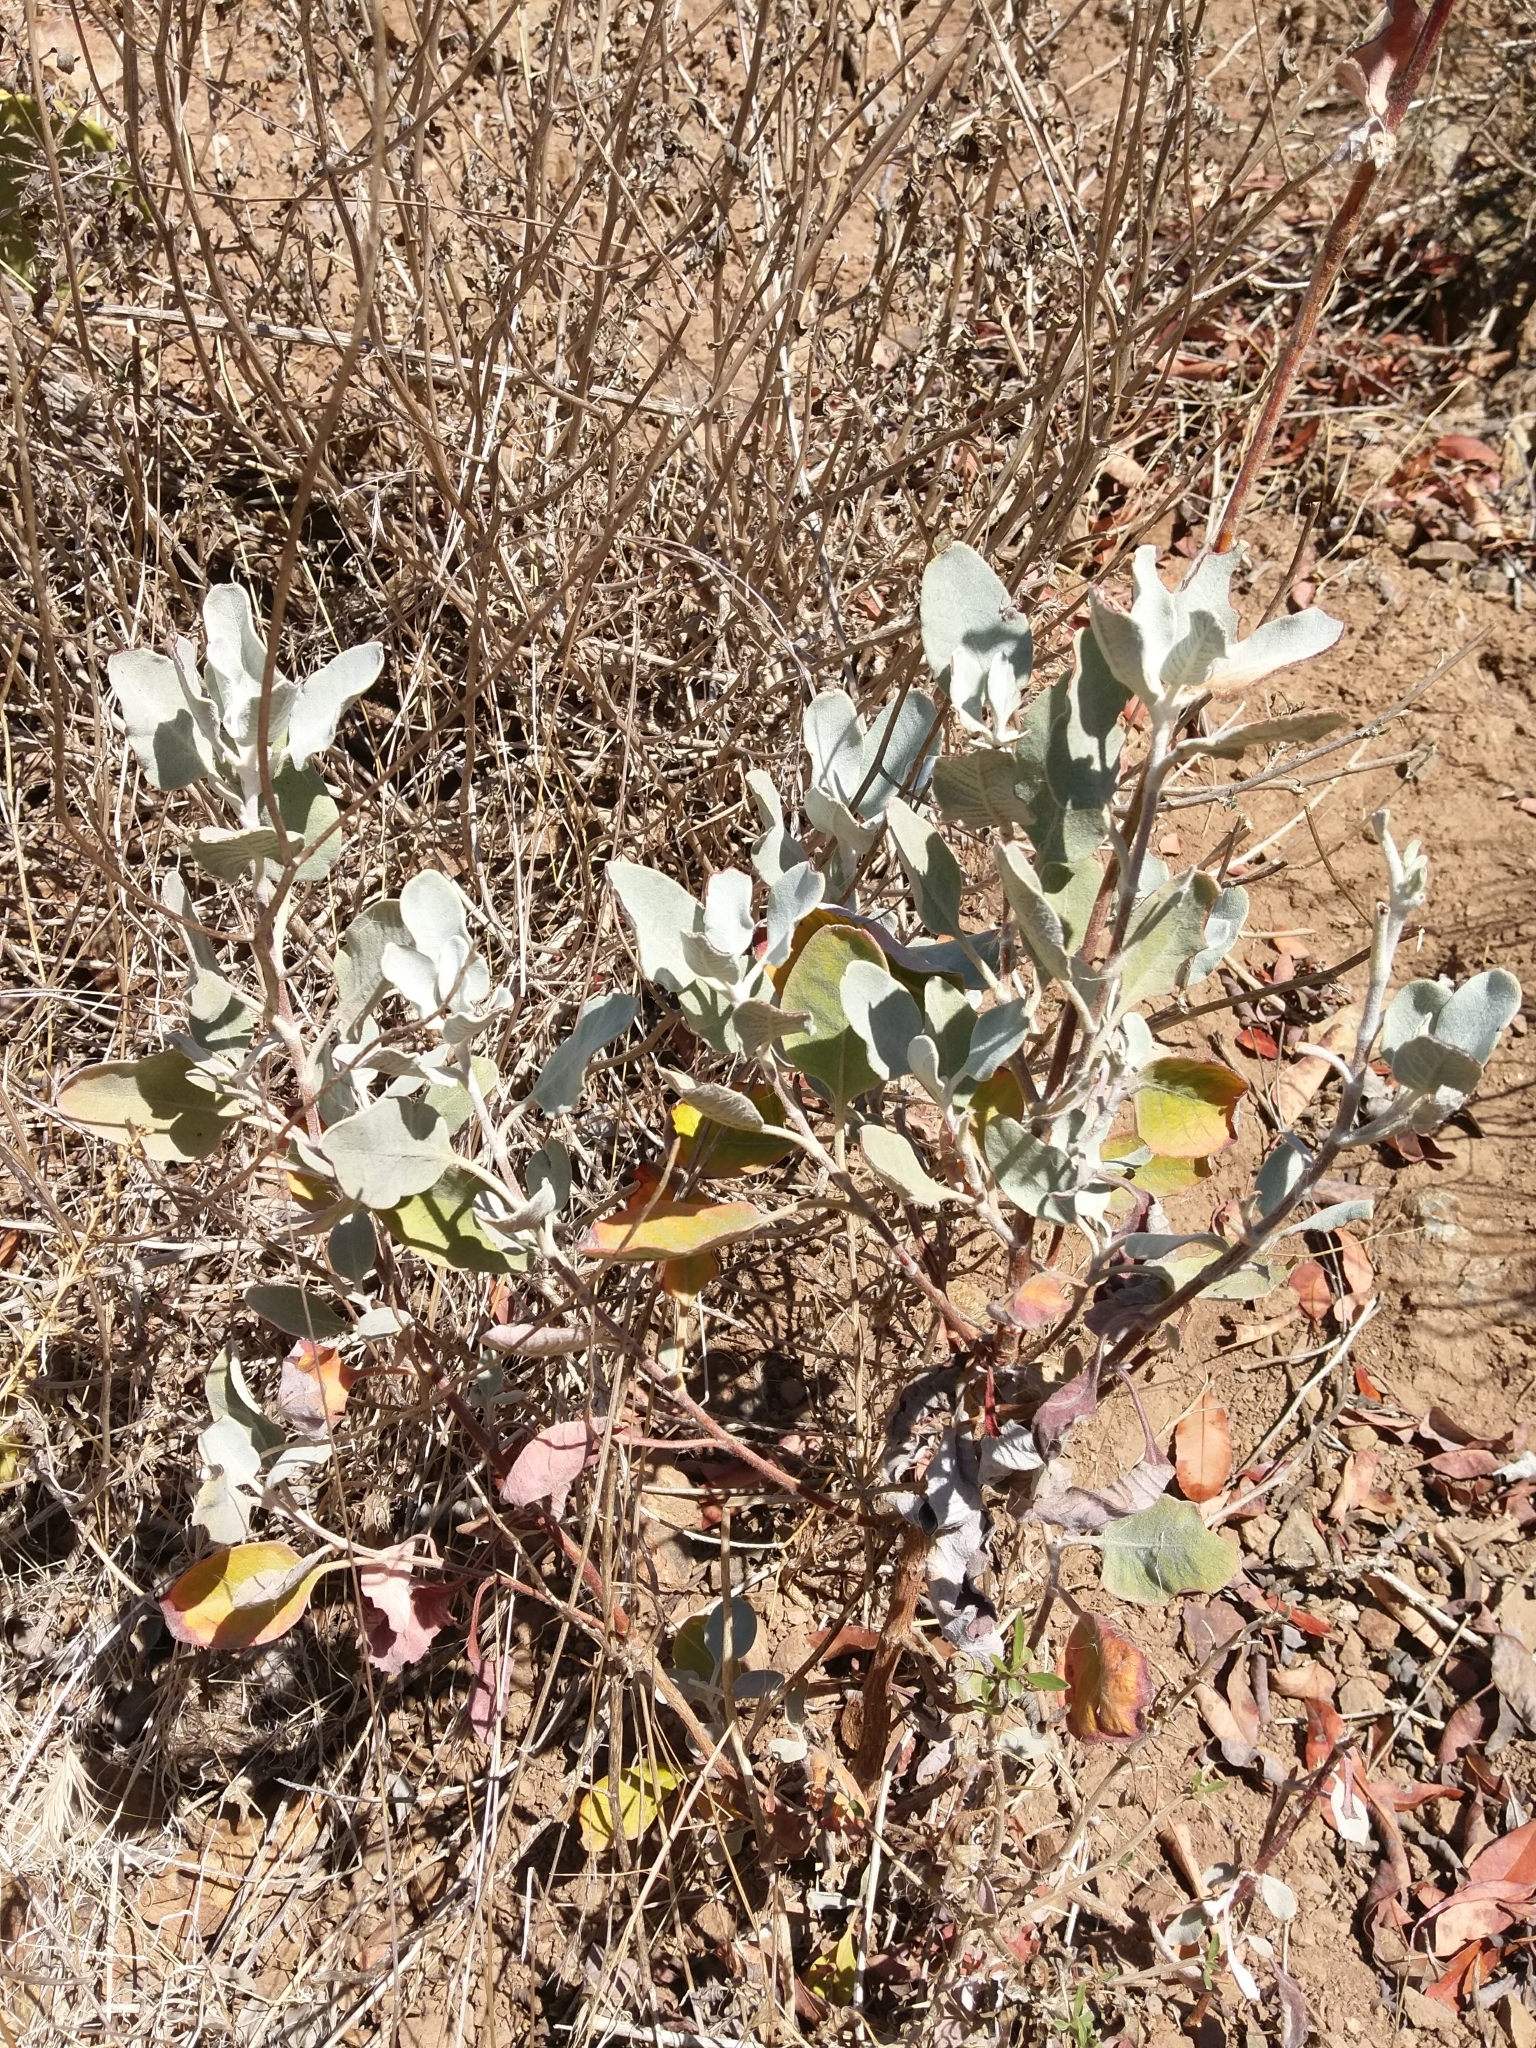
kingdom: Plantae
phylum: Tracheophyta
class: Magnoliopsida
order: Caryophyllales
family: Polygonaceae
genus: Eriogonum
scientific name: Eriogonum giganteum
